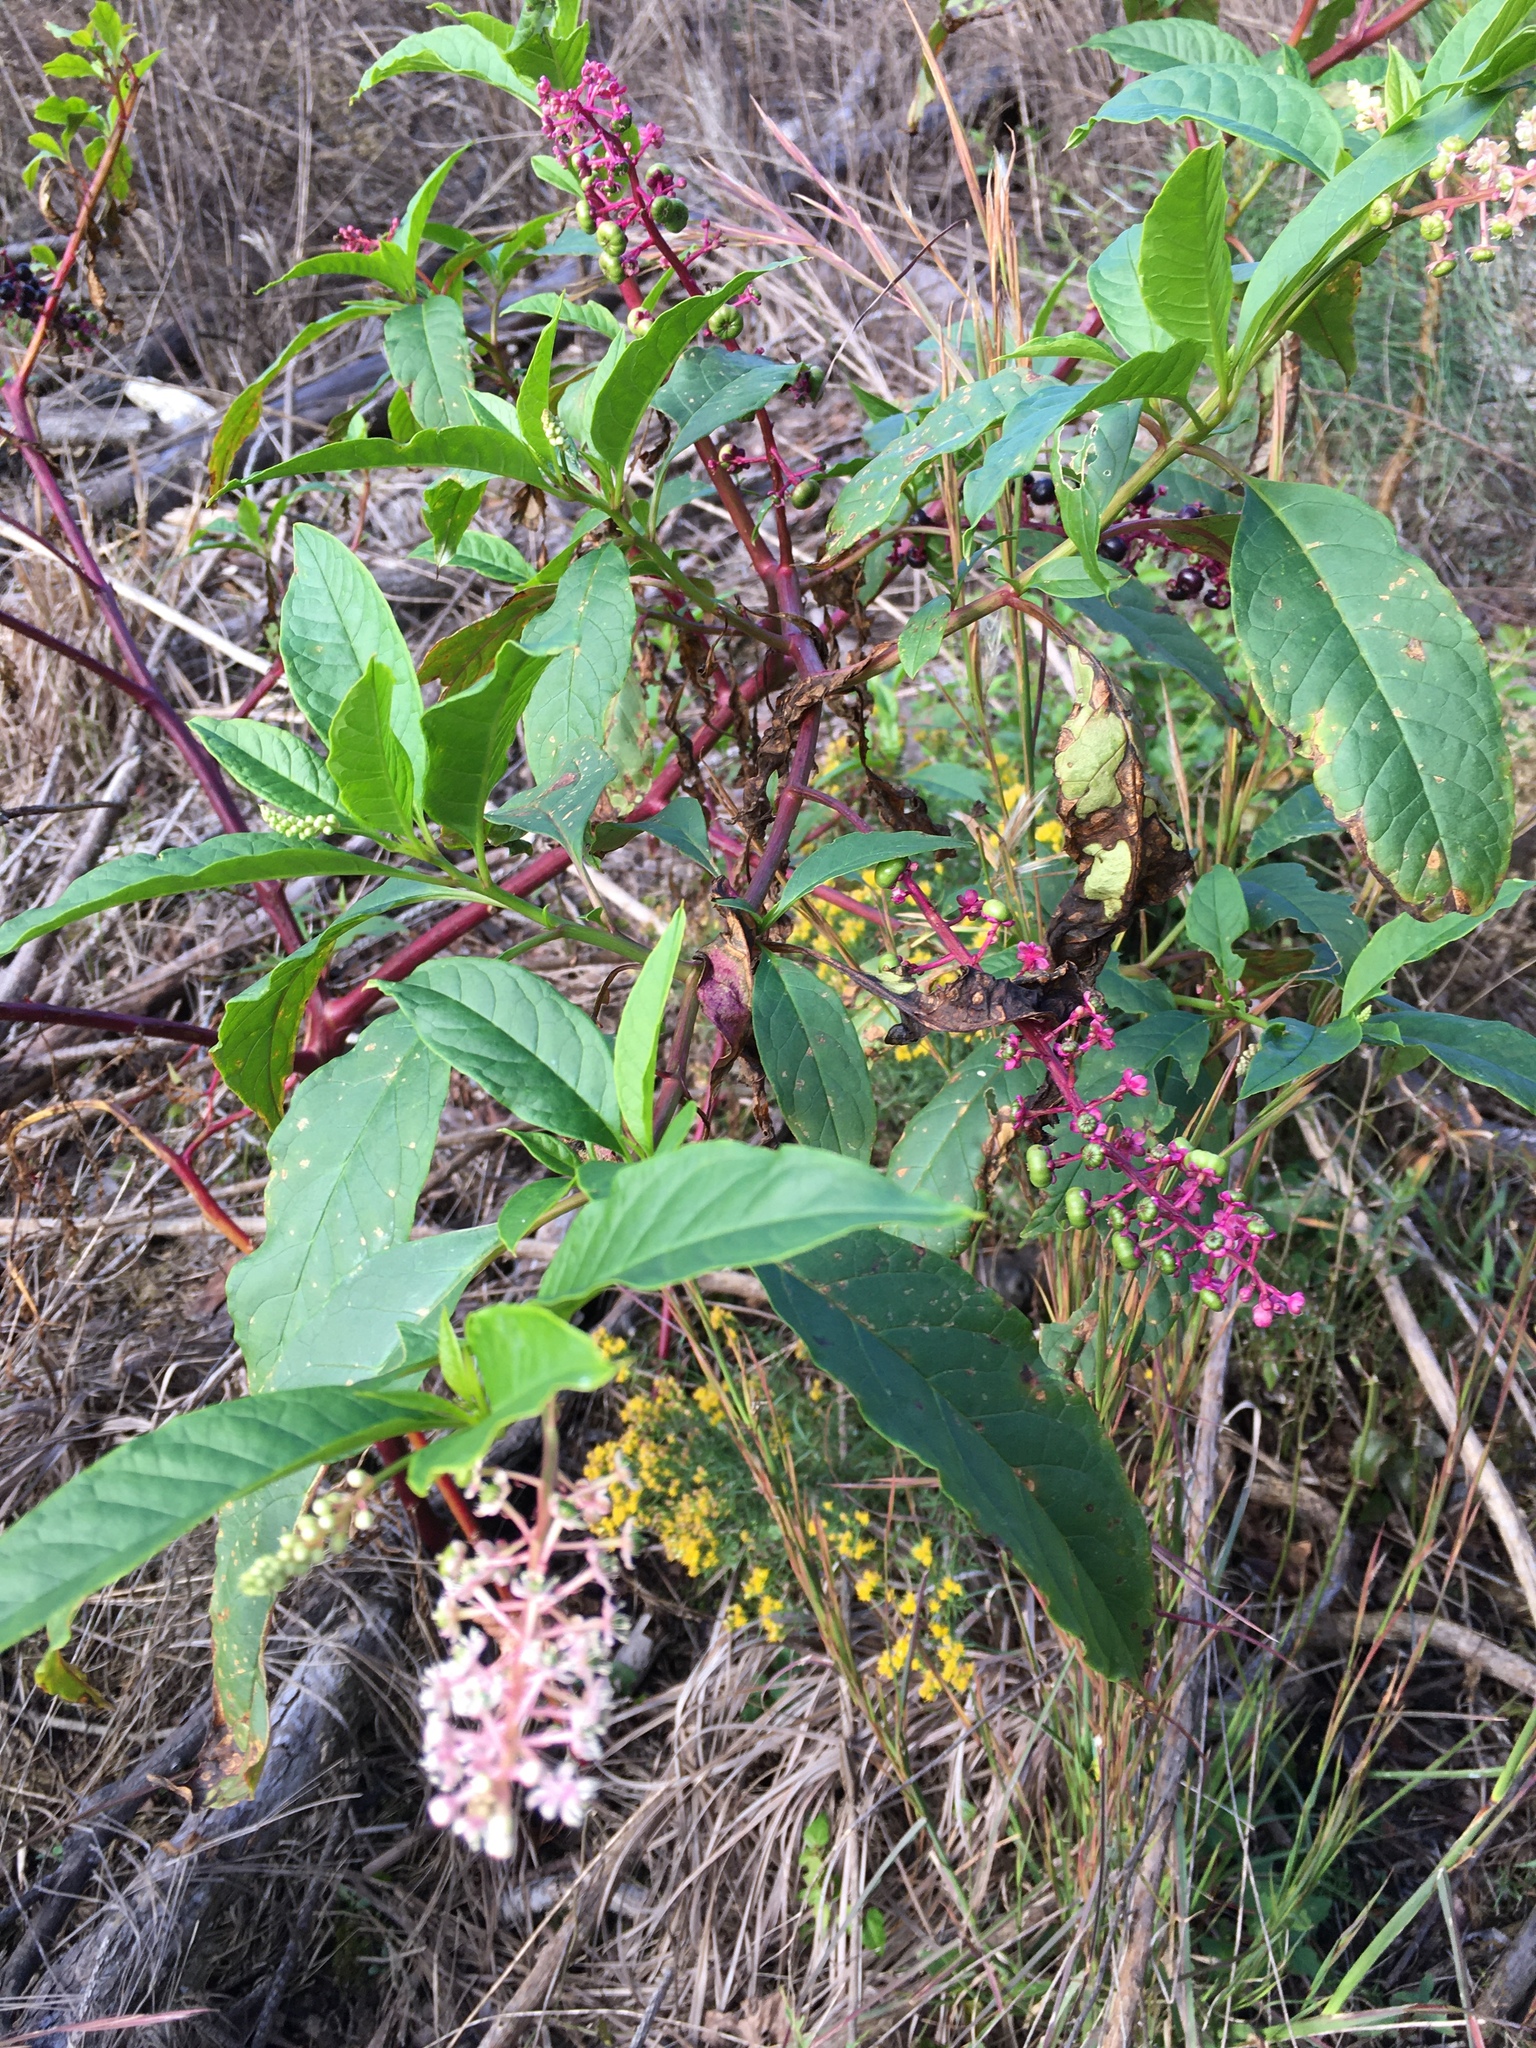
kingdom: Plantae
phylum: Tracheophyta
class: Magnoliopsida
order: Caryophyllales
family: Phytolaccaceae
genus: Phytolacca
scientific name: Phytolacca americana
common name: American pokeweed
